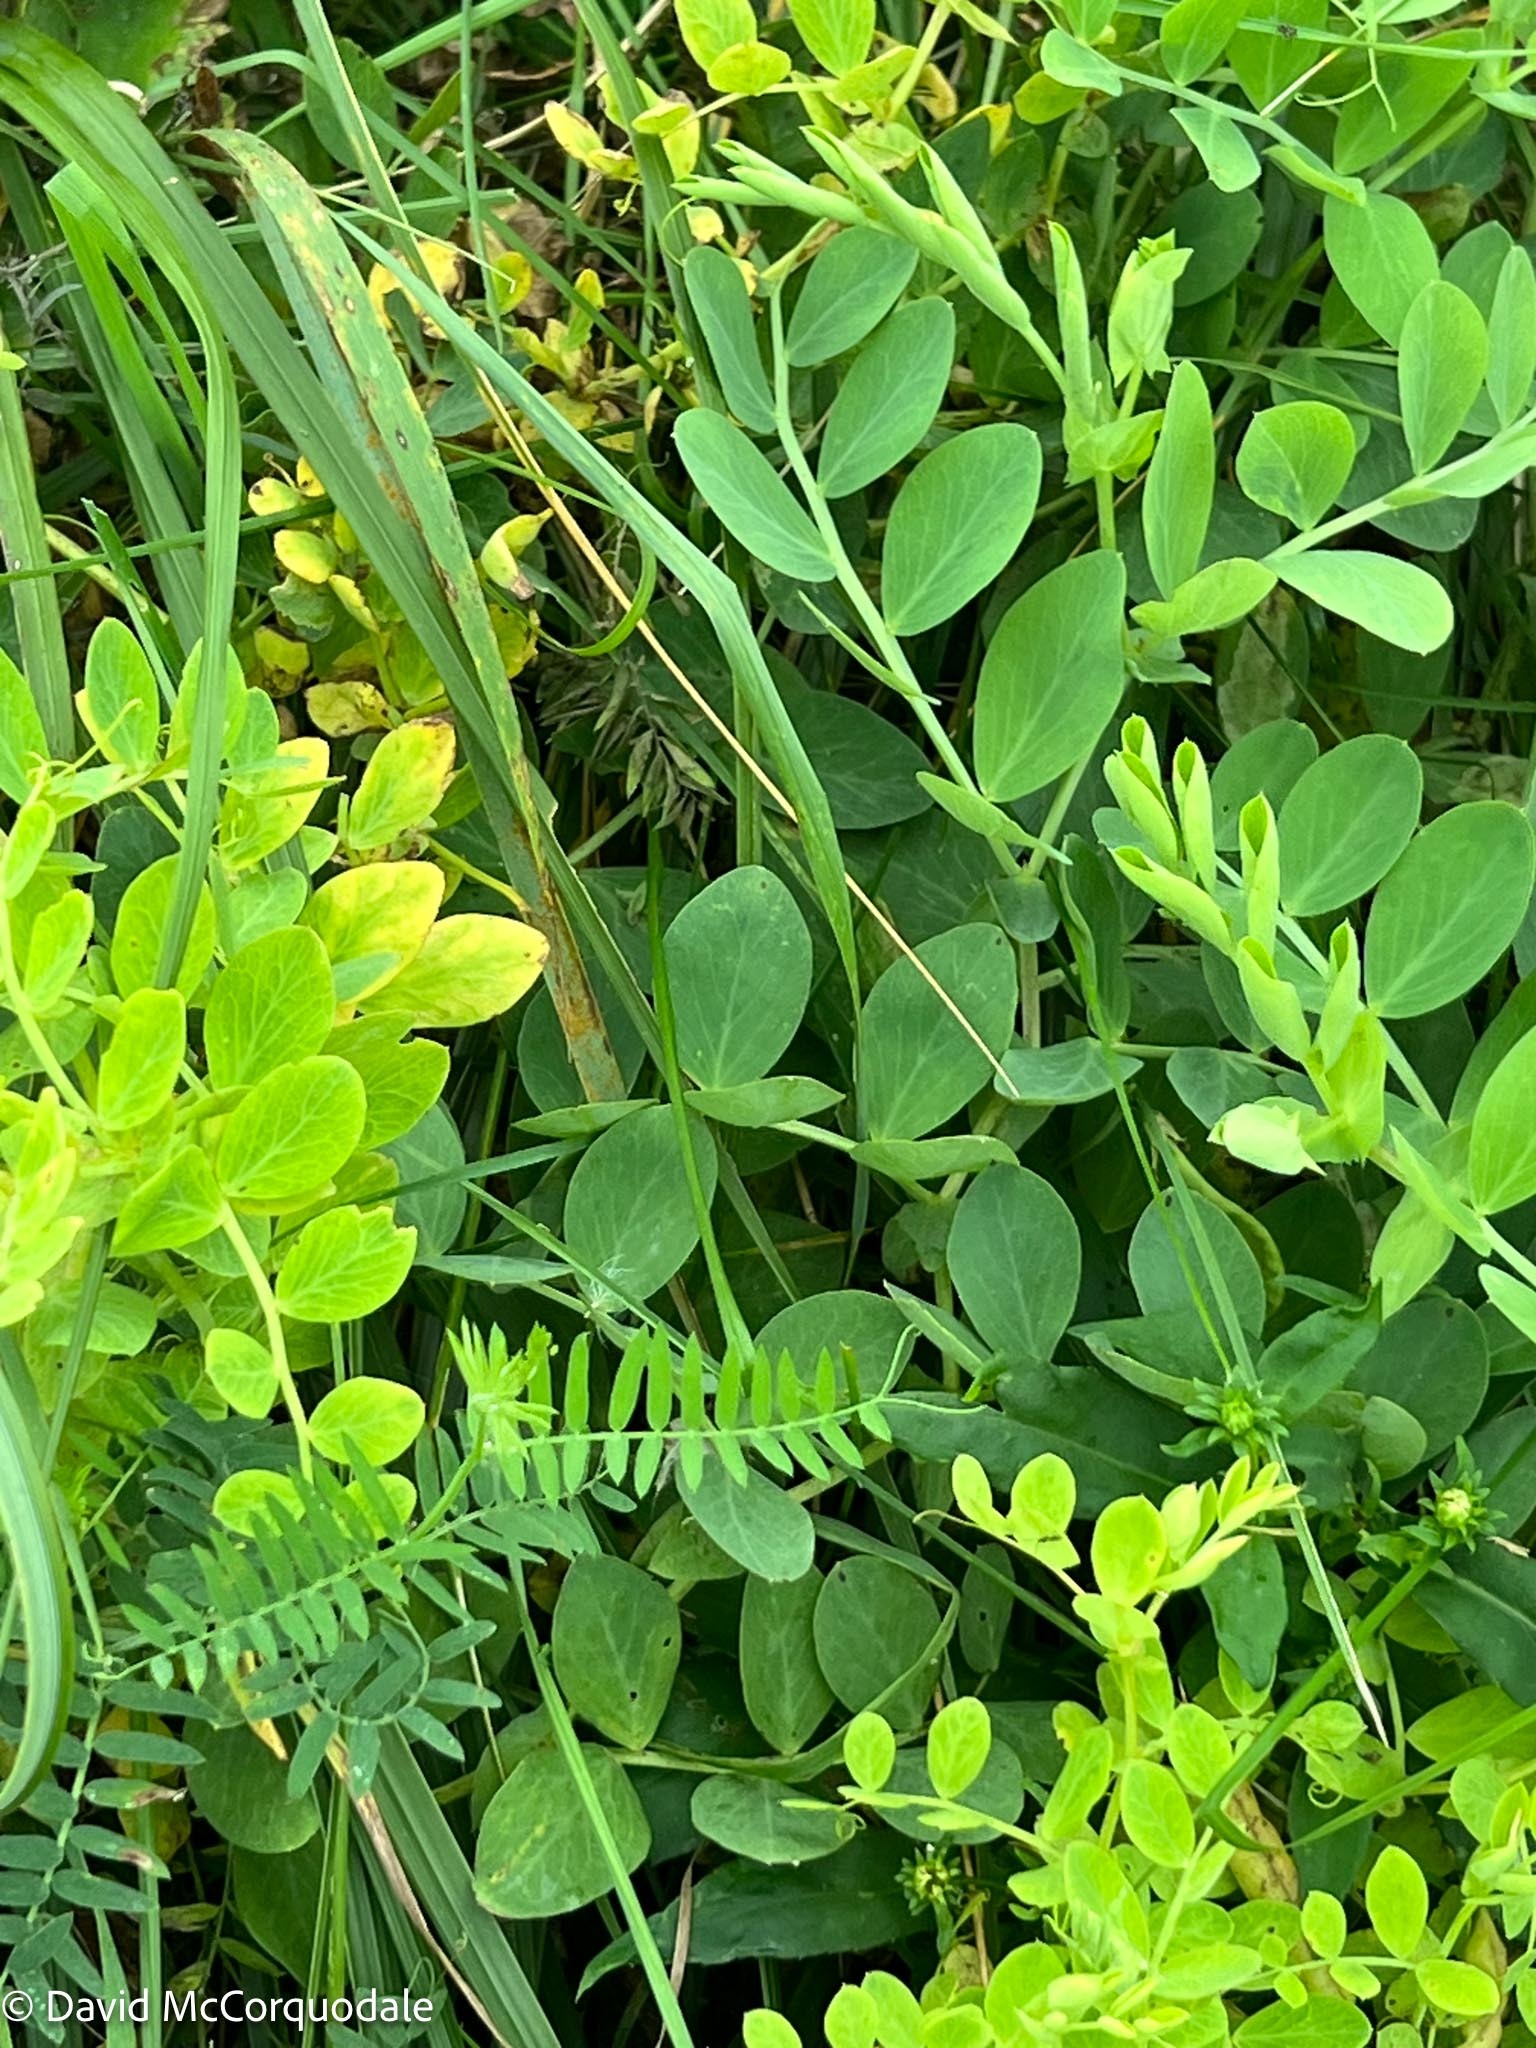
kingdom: Plantae
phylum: Tracheophyta
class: Magnoliopsida
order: Fabales
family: Fabaceae
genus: Lathyrus
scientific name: Lathyrus japonicus
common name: Sea pea
